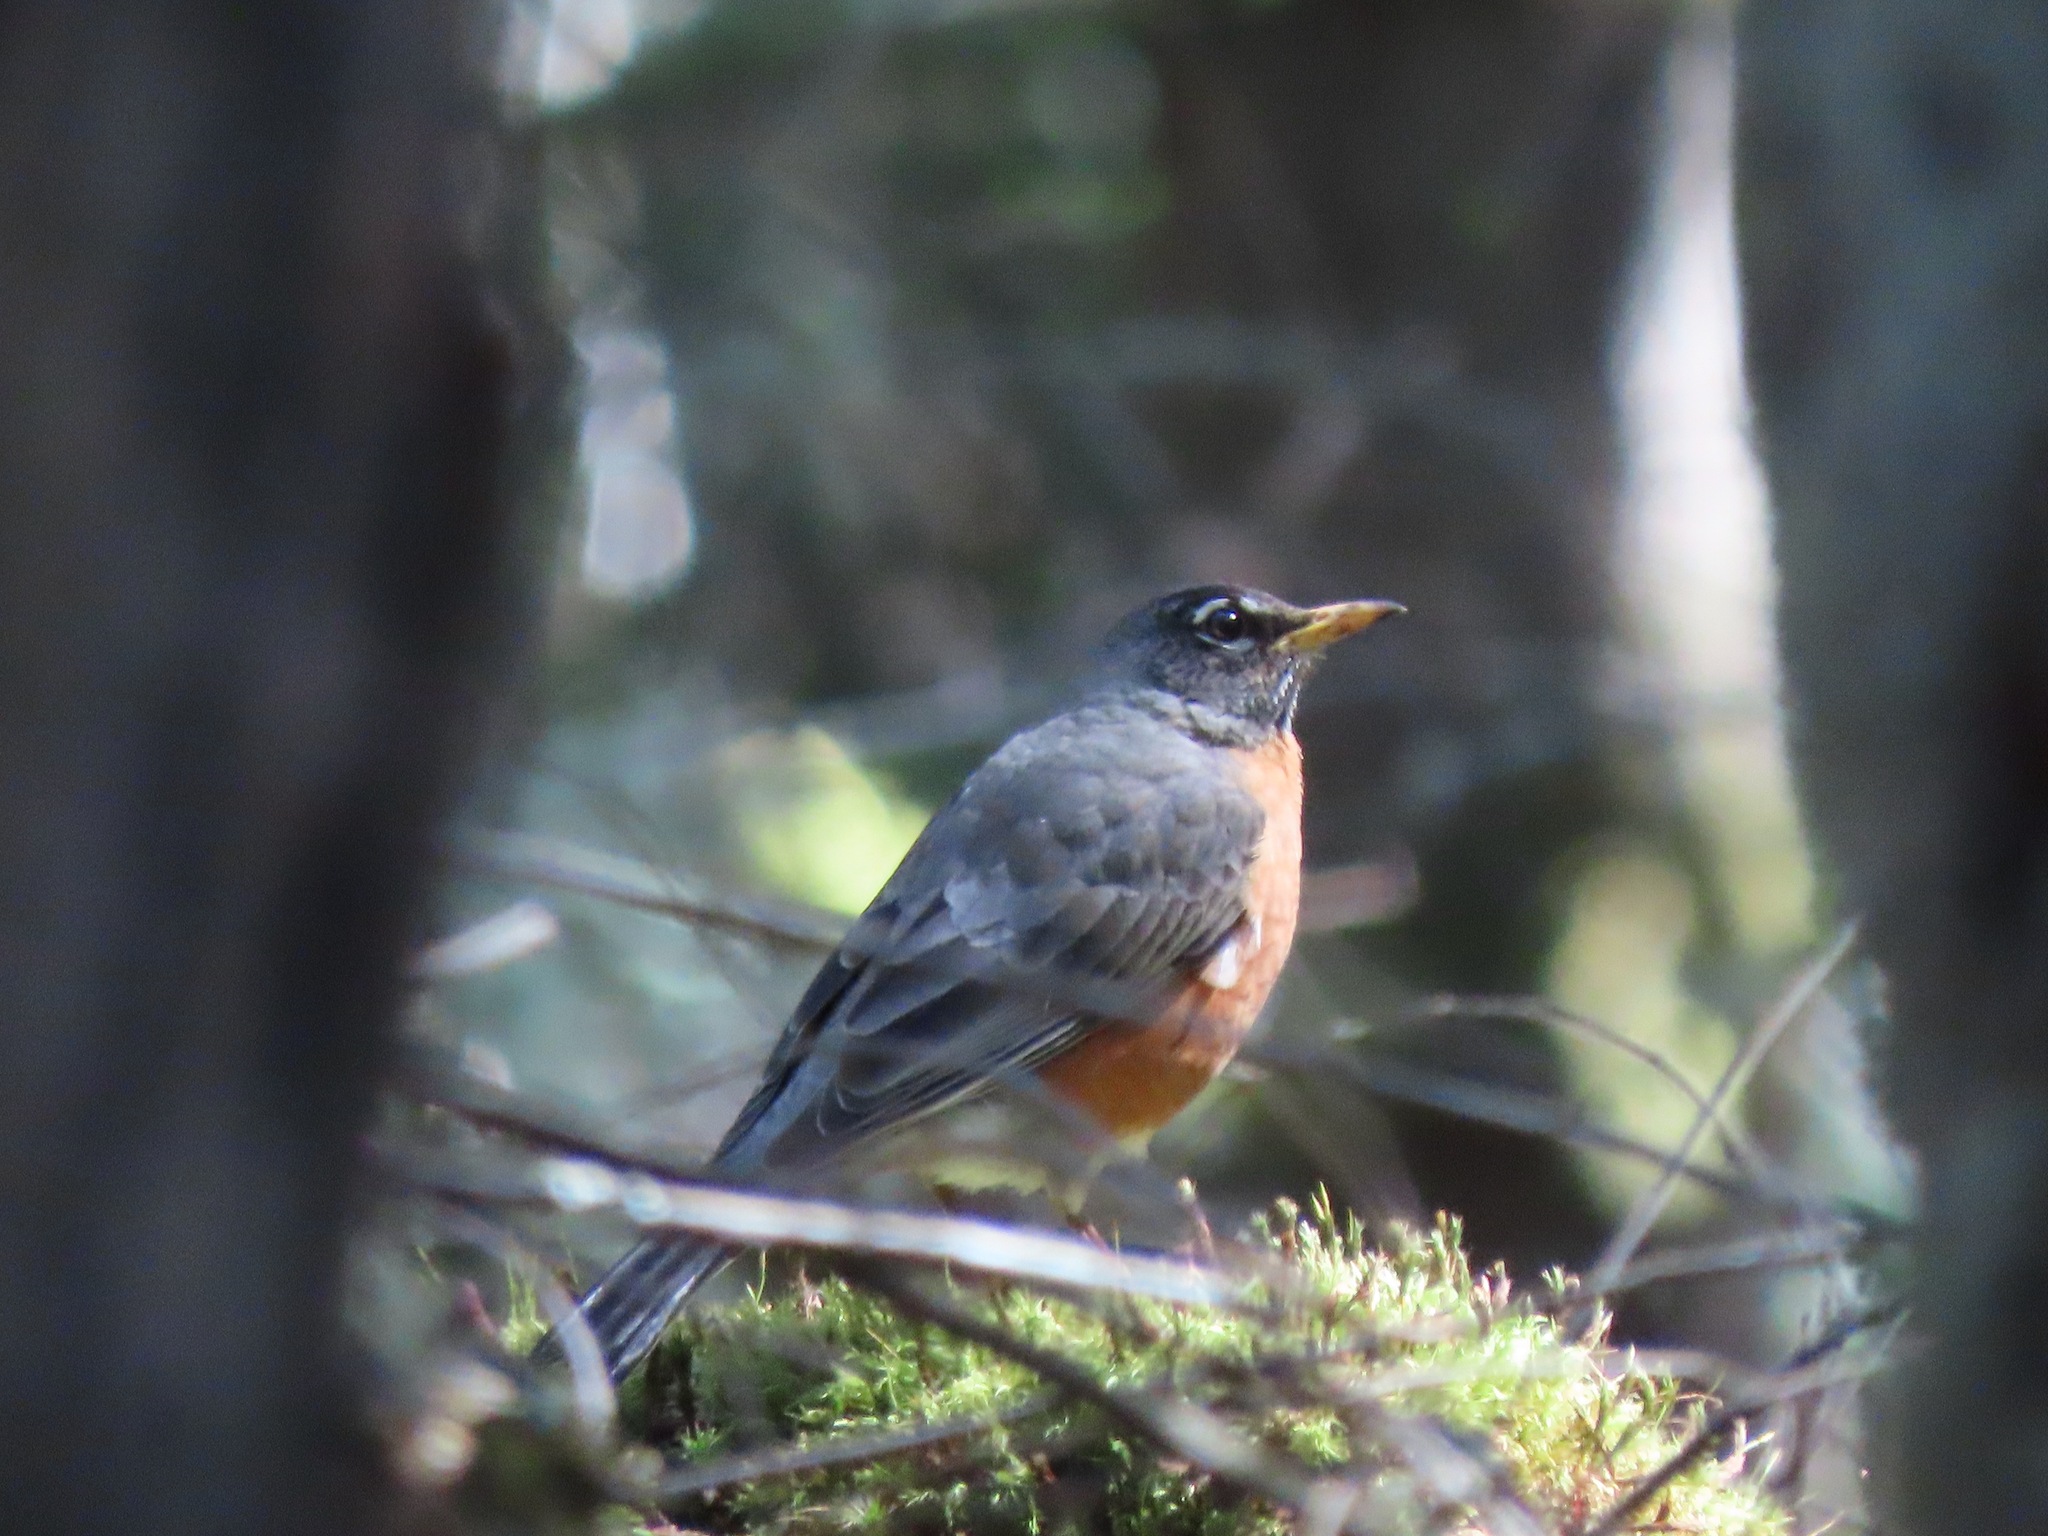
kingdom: Animalia
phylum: Chordata
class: Aves
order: Passeriformes
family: Turdidae
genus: Turdus
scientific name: Turdus migratorius
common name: American robin
